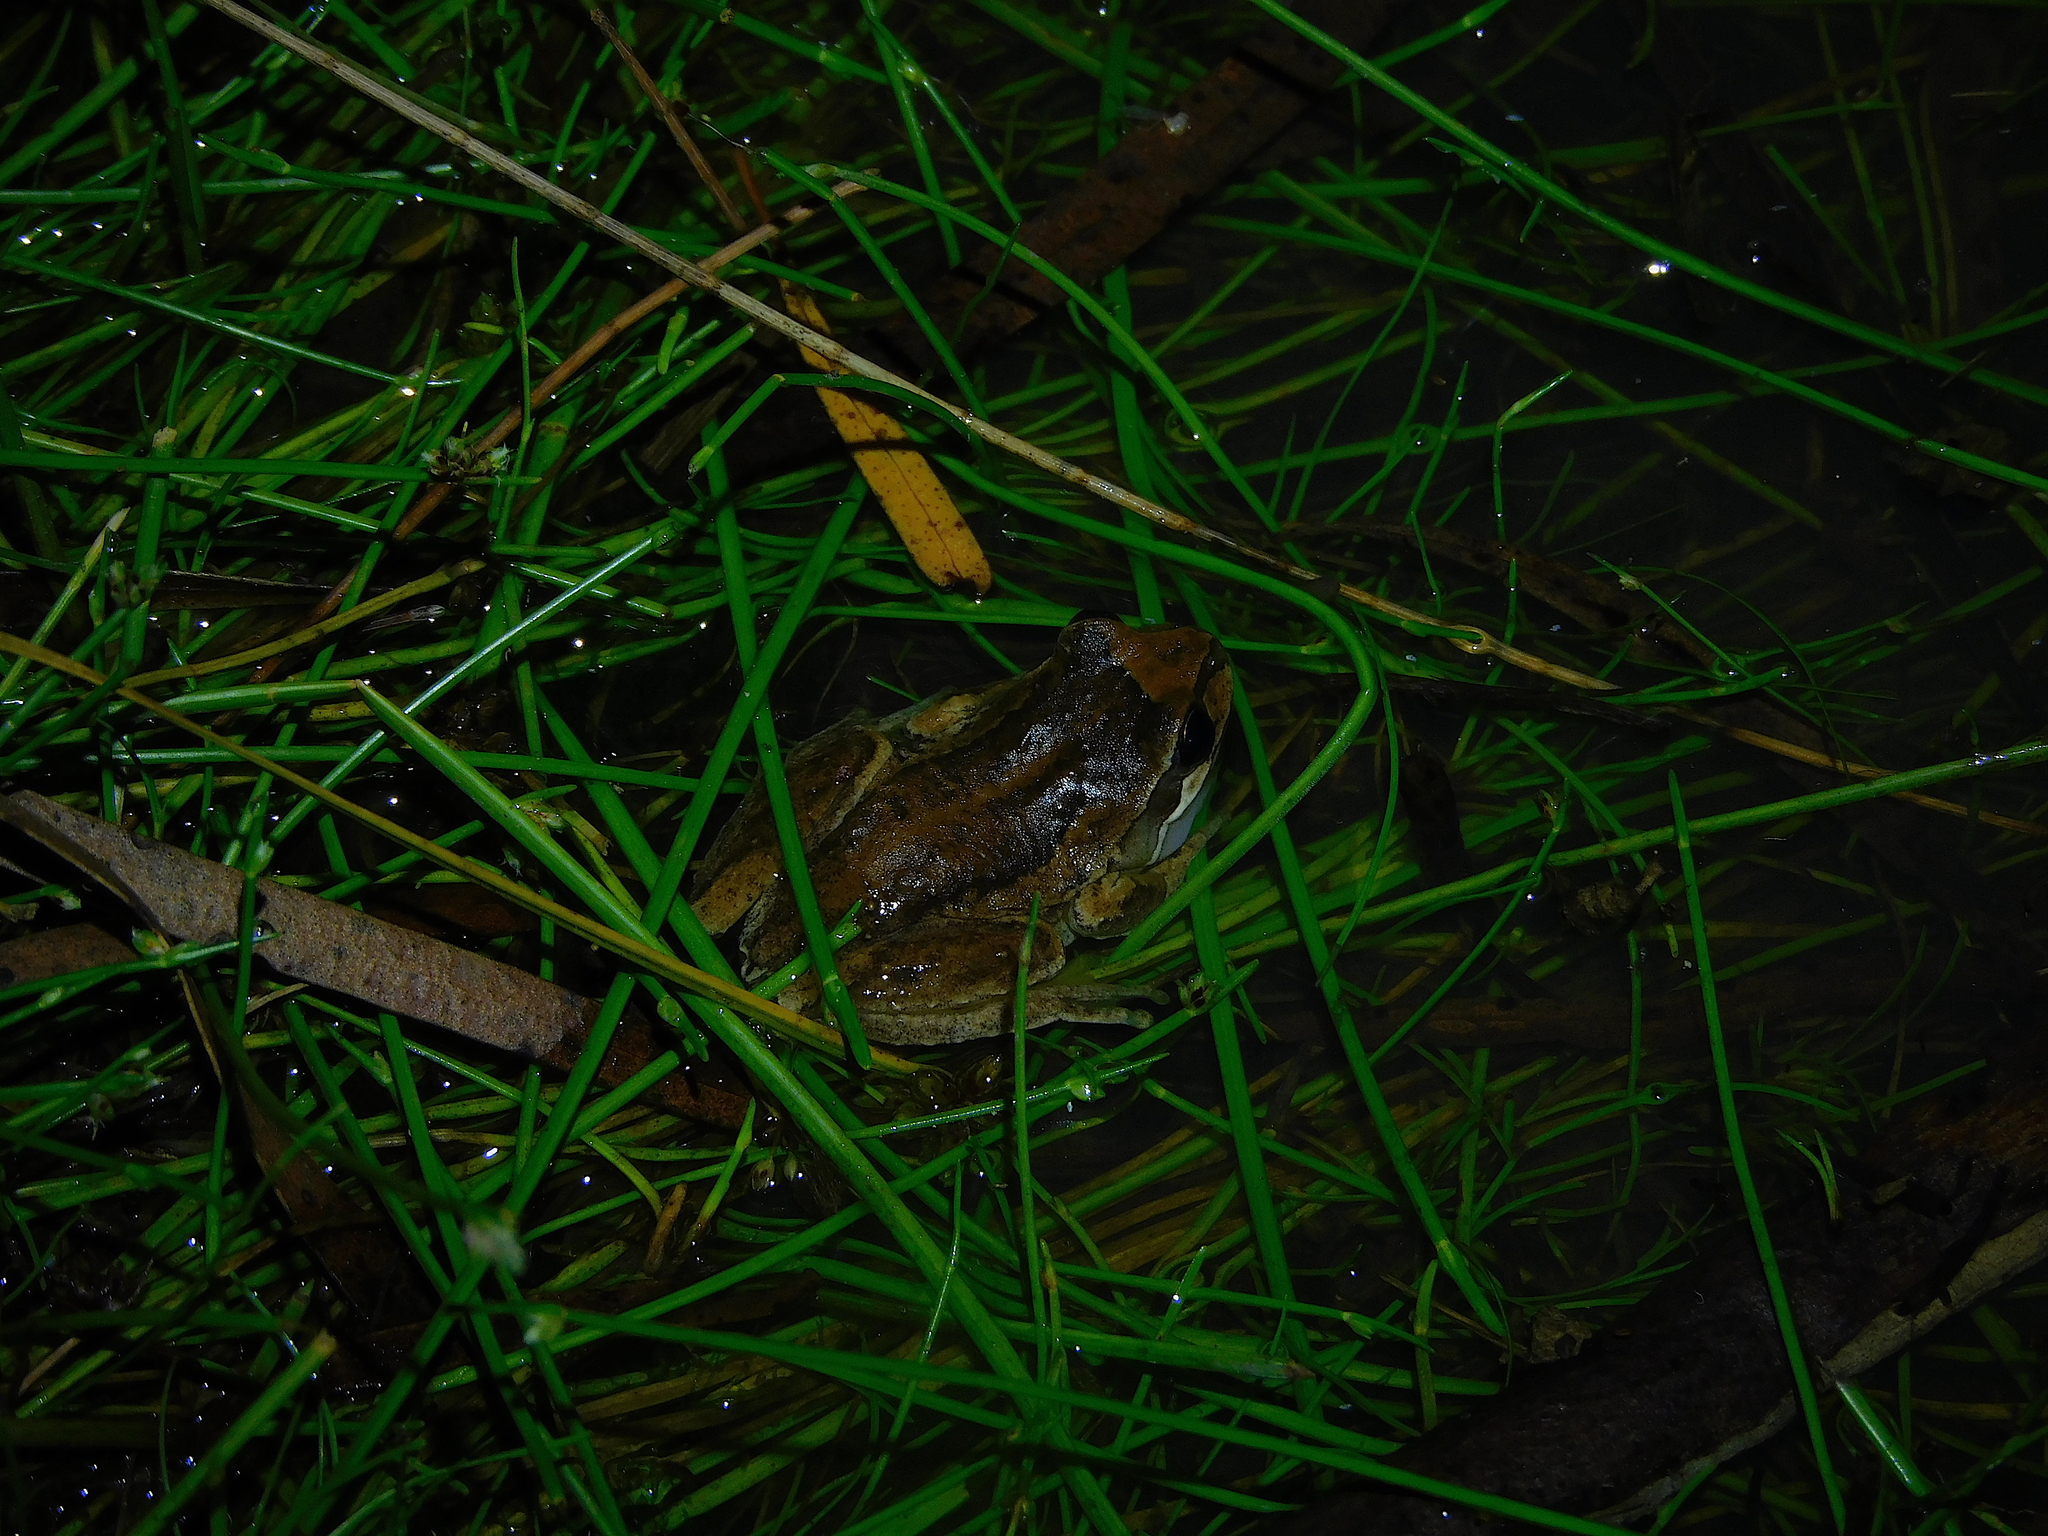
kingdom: Animalia
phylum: Chordata
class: Amphibia
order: Anura
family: Pelodryadidae
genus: Litoria
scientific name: Litoria ewingii
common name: Southern brown tree frog
